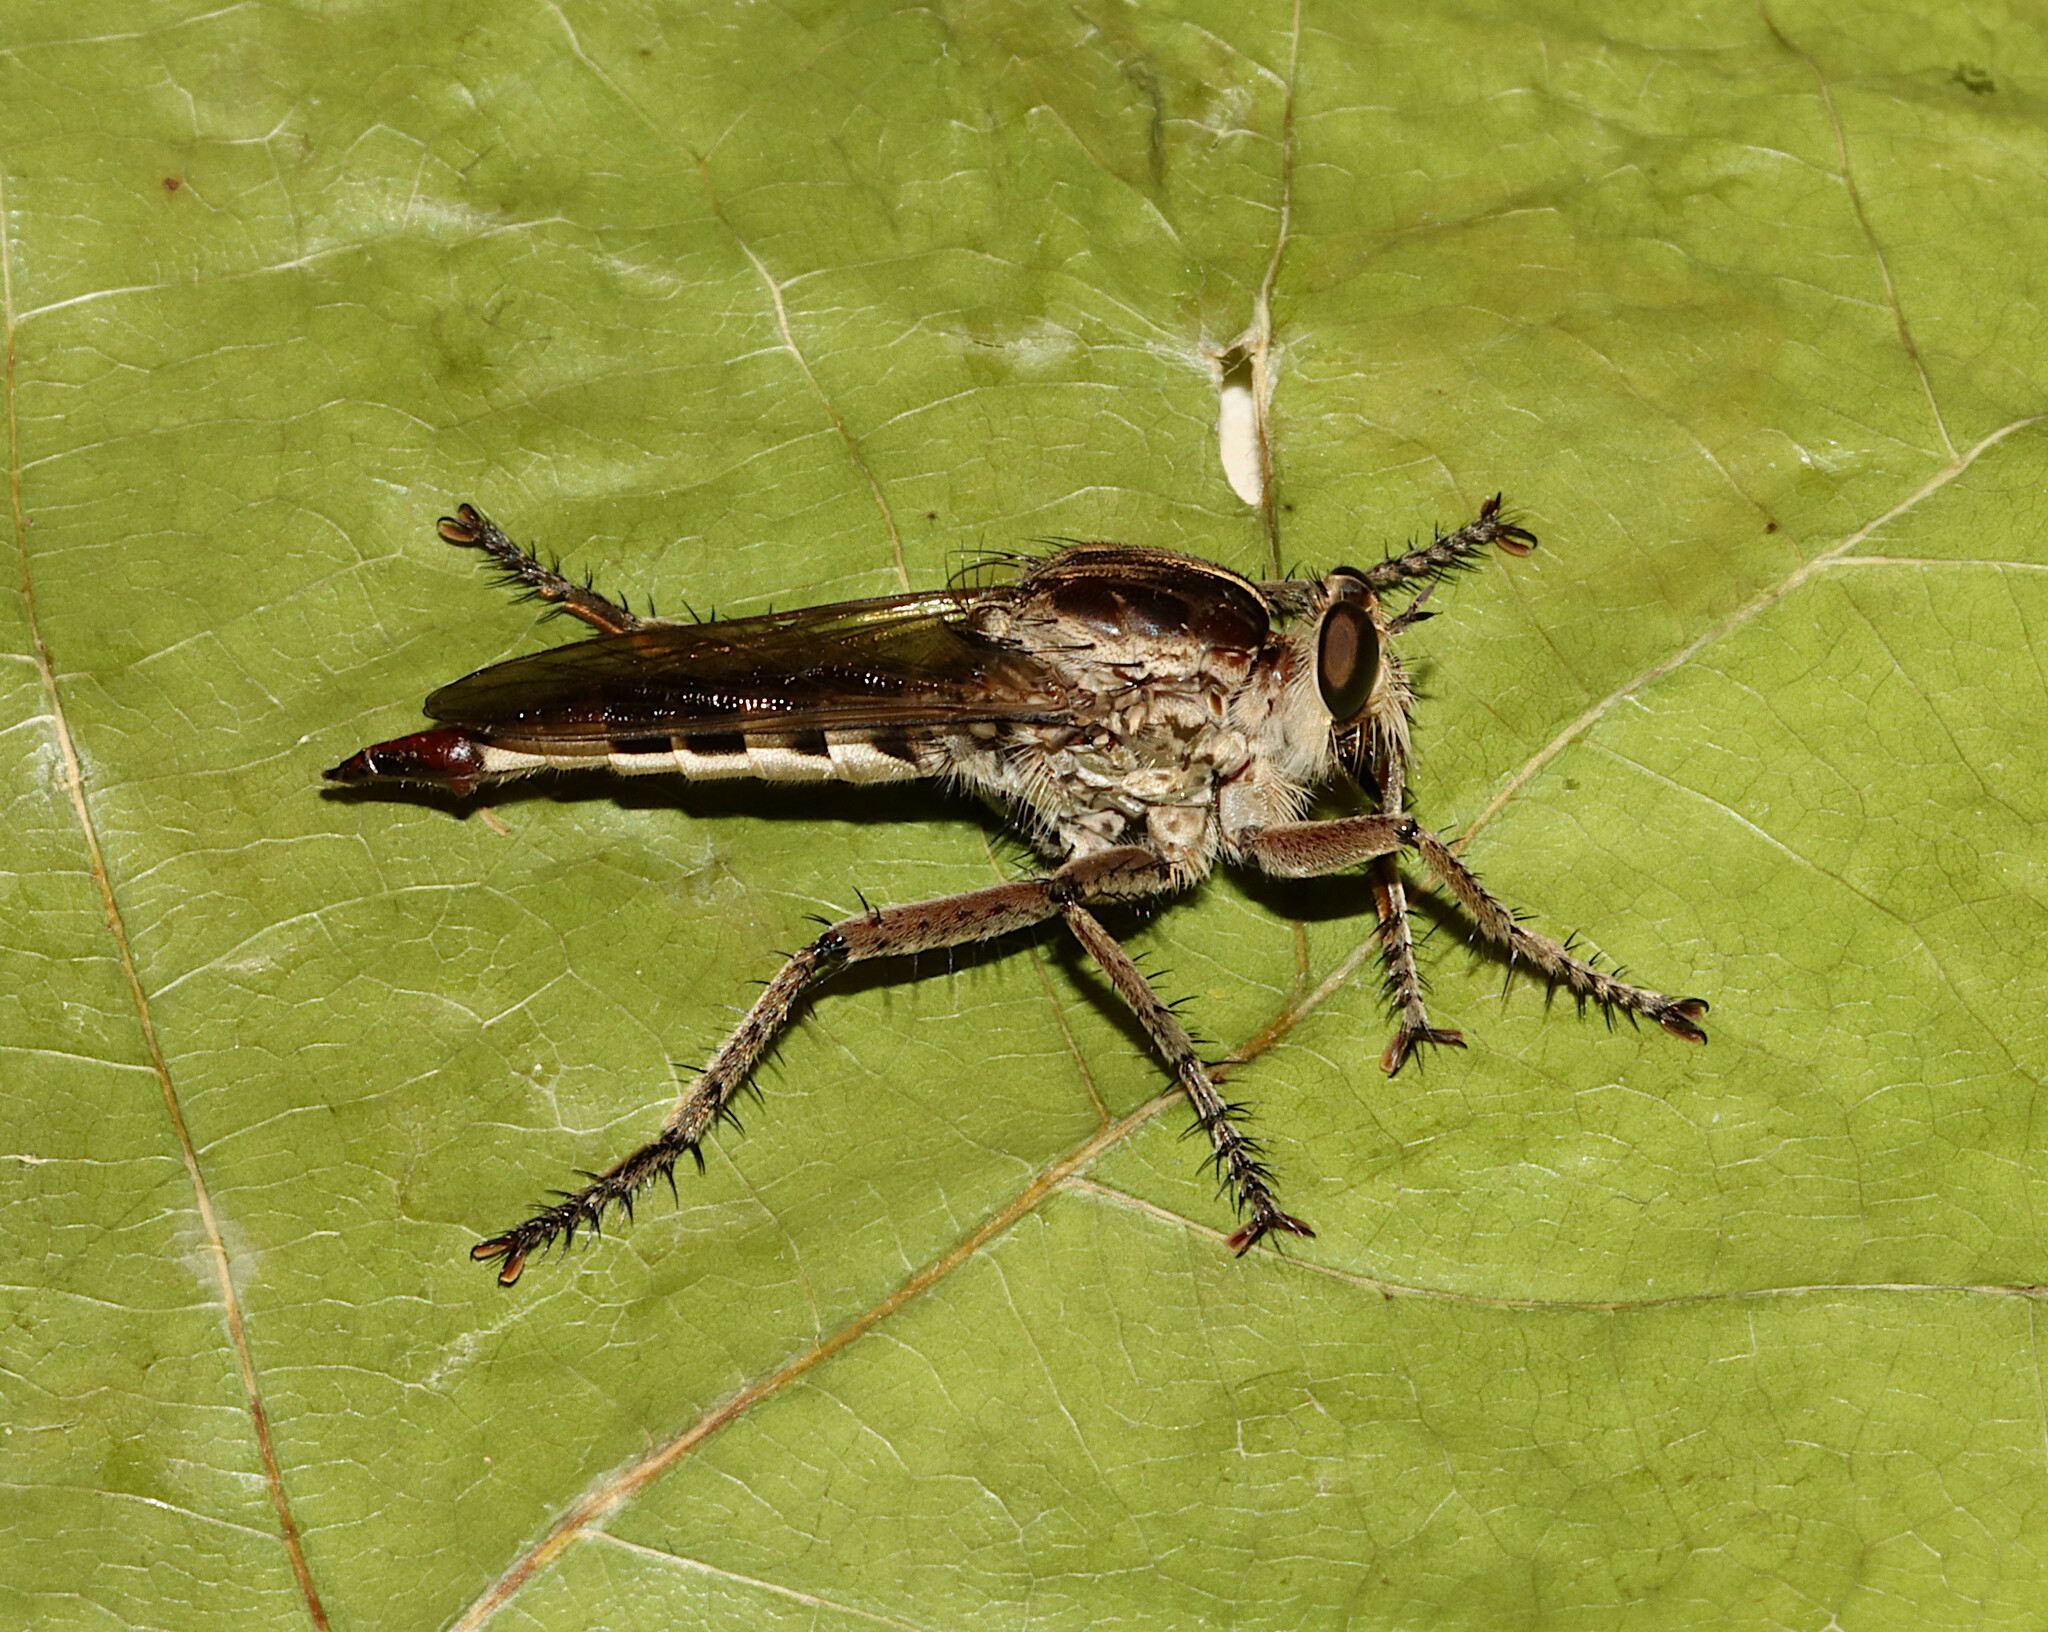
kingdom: Animalia
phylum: Arthropoda
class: Insecta
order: Diptera
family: Asilidae
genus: Triorla
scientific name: Triorla interrupta
